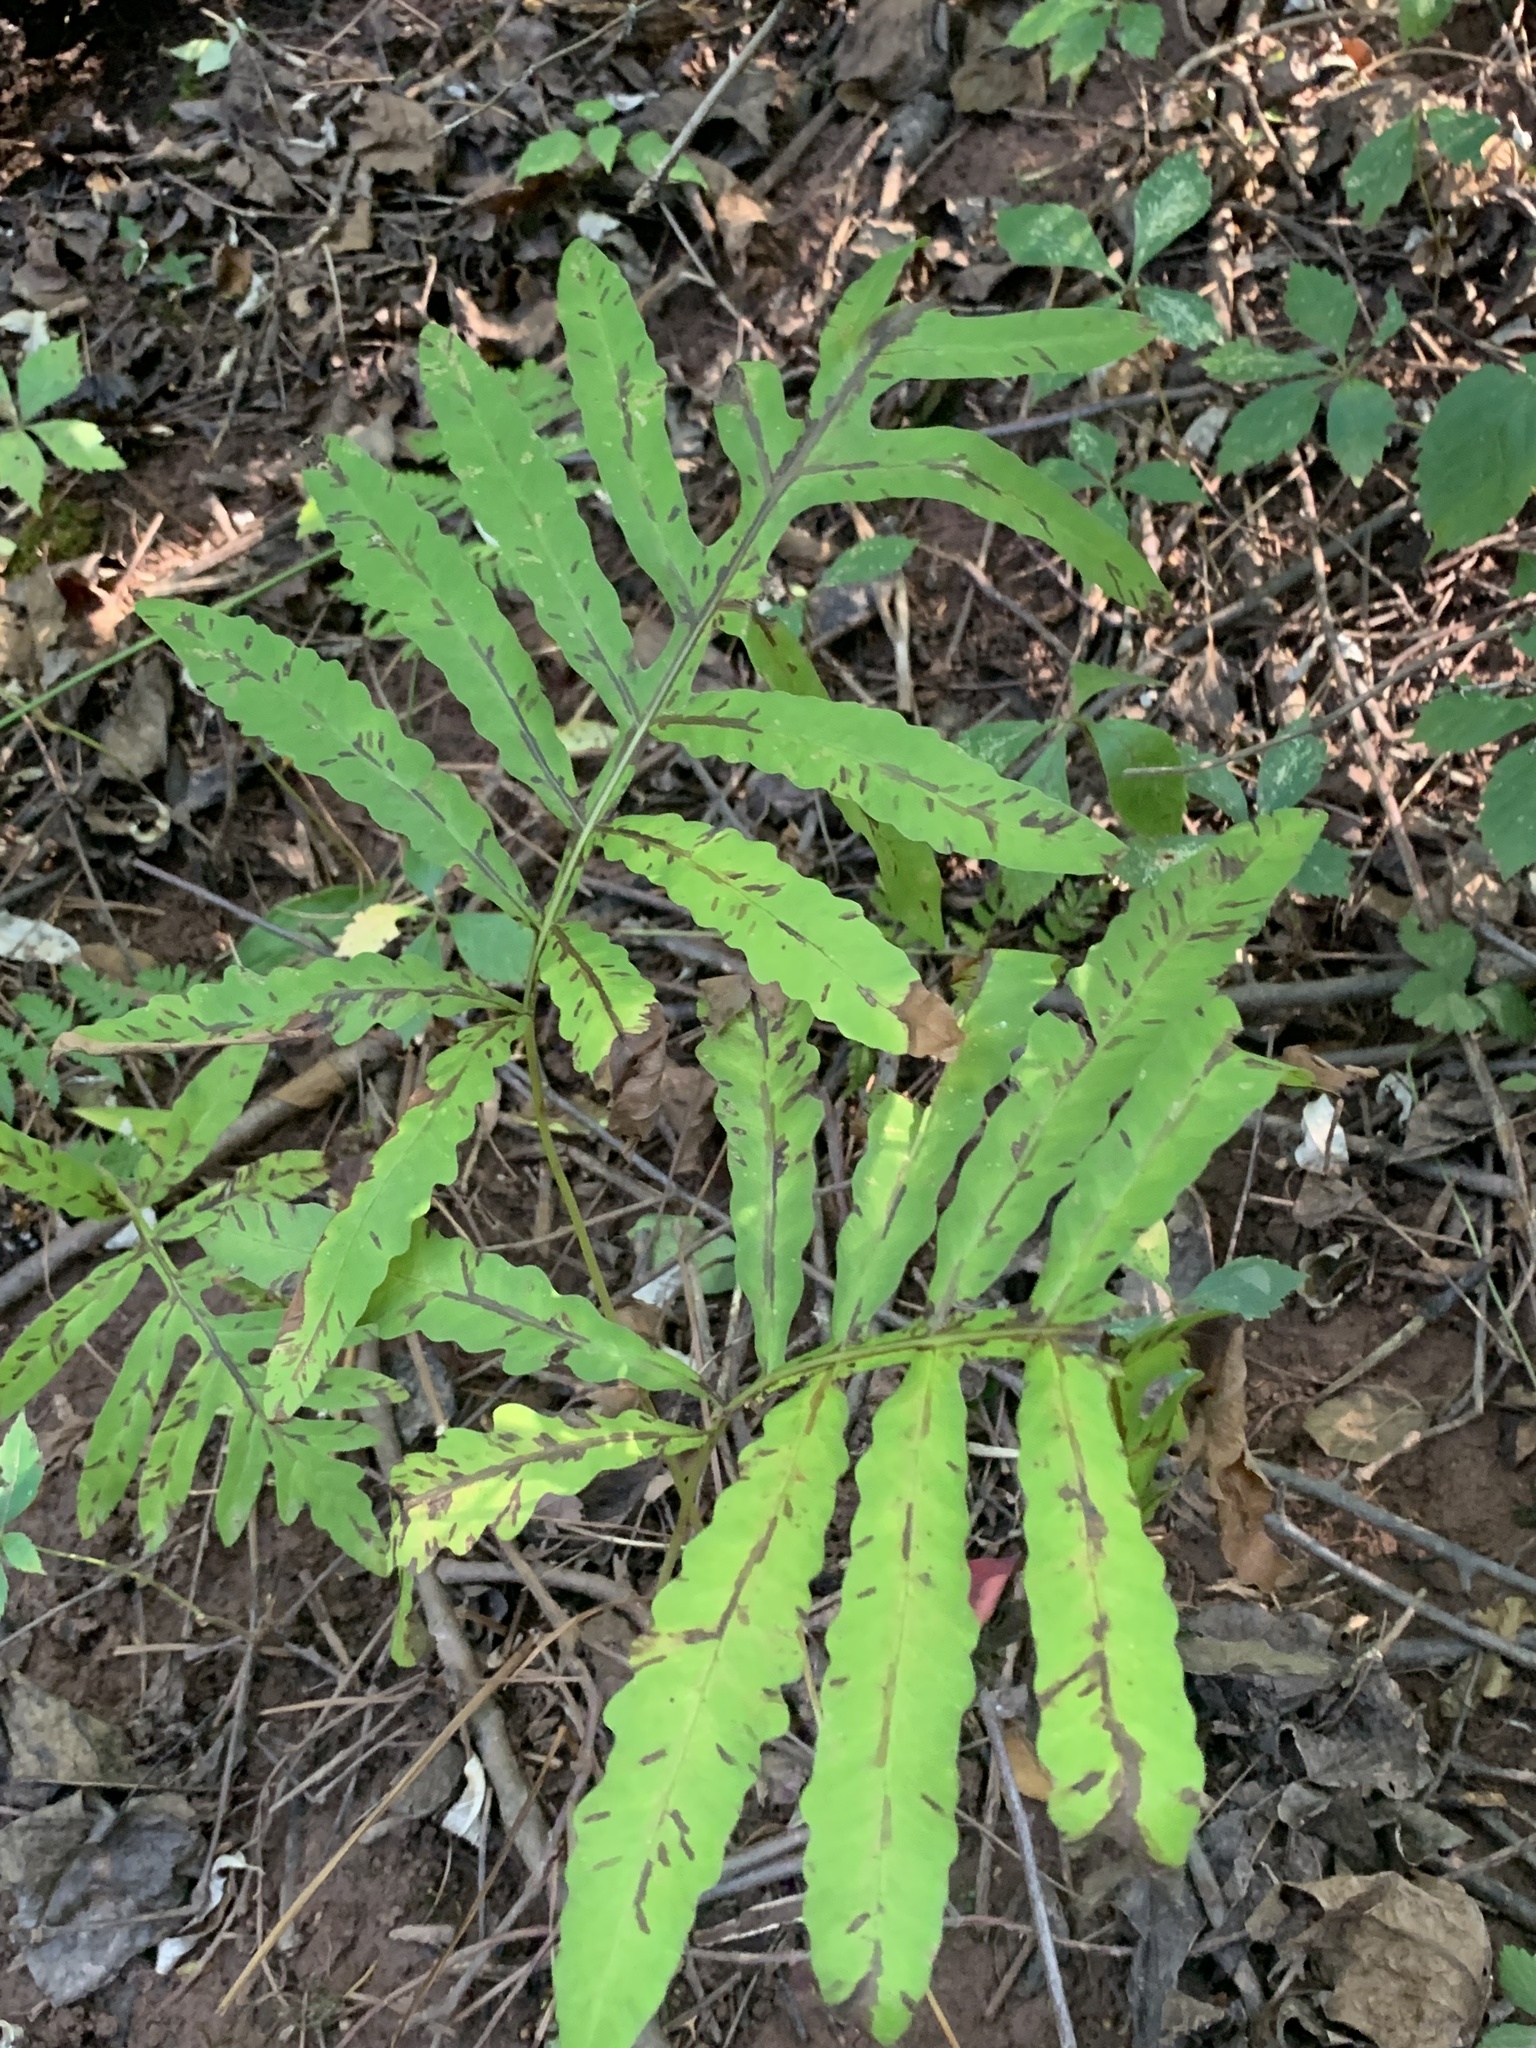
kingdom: Plantae
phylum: Tracheophyta
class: Polypodiopsida
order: Polypodiales
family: Onocleaceae
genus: Onoclea
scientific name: Onoclea sensibilis
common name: Sensitive fern
